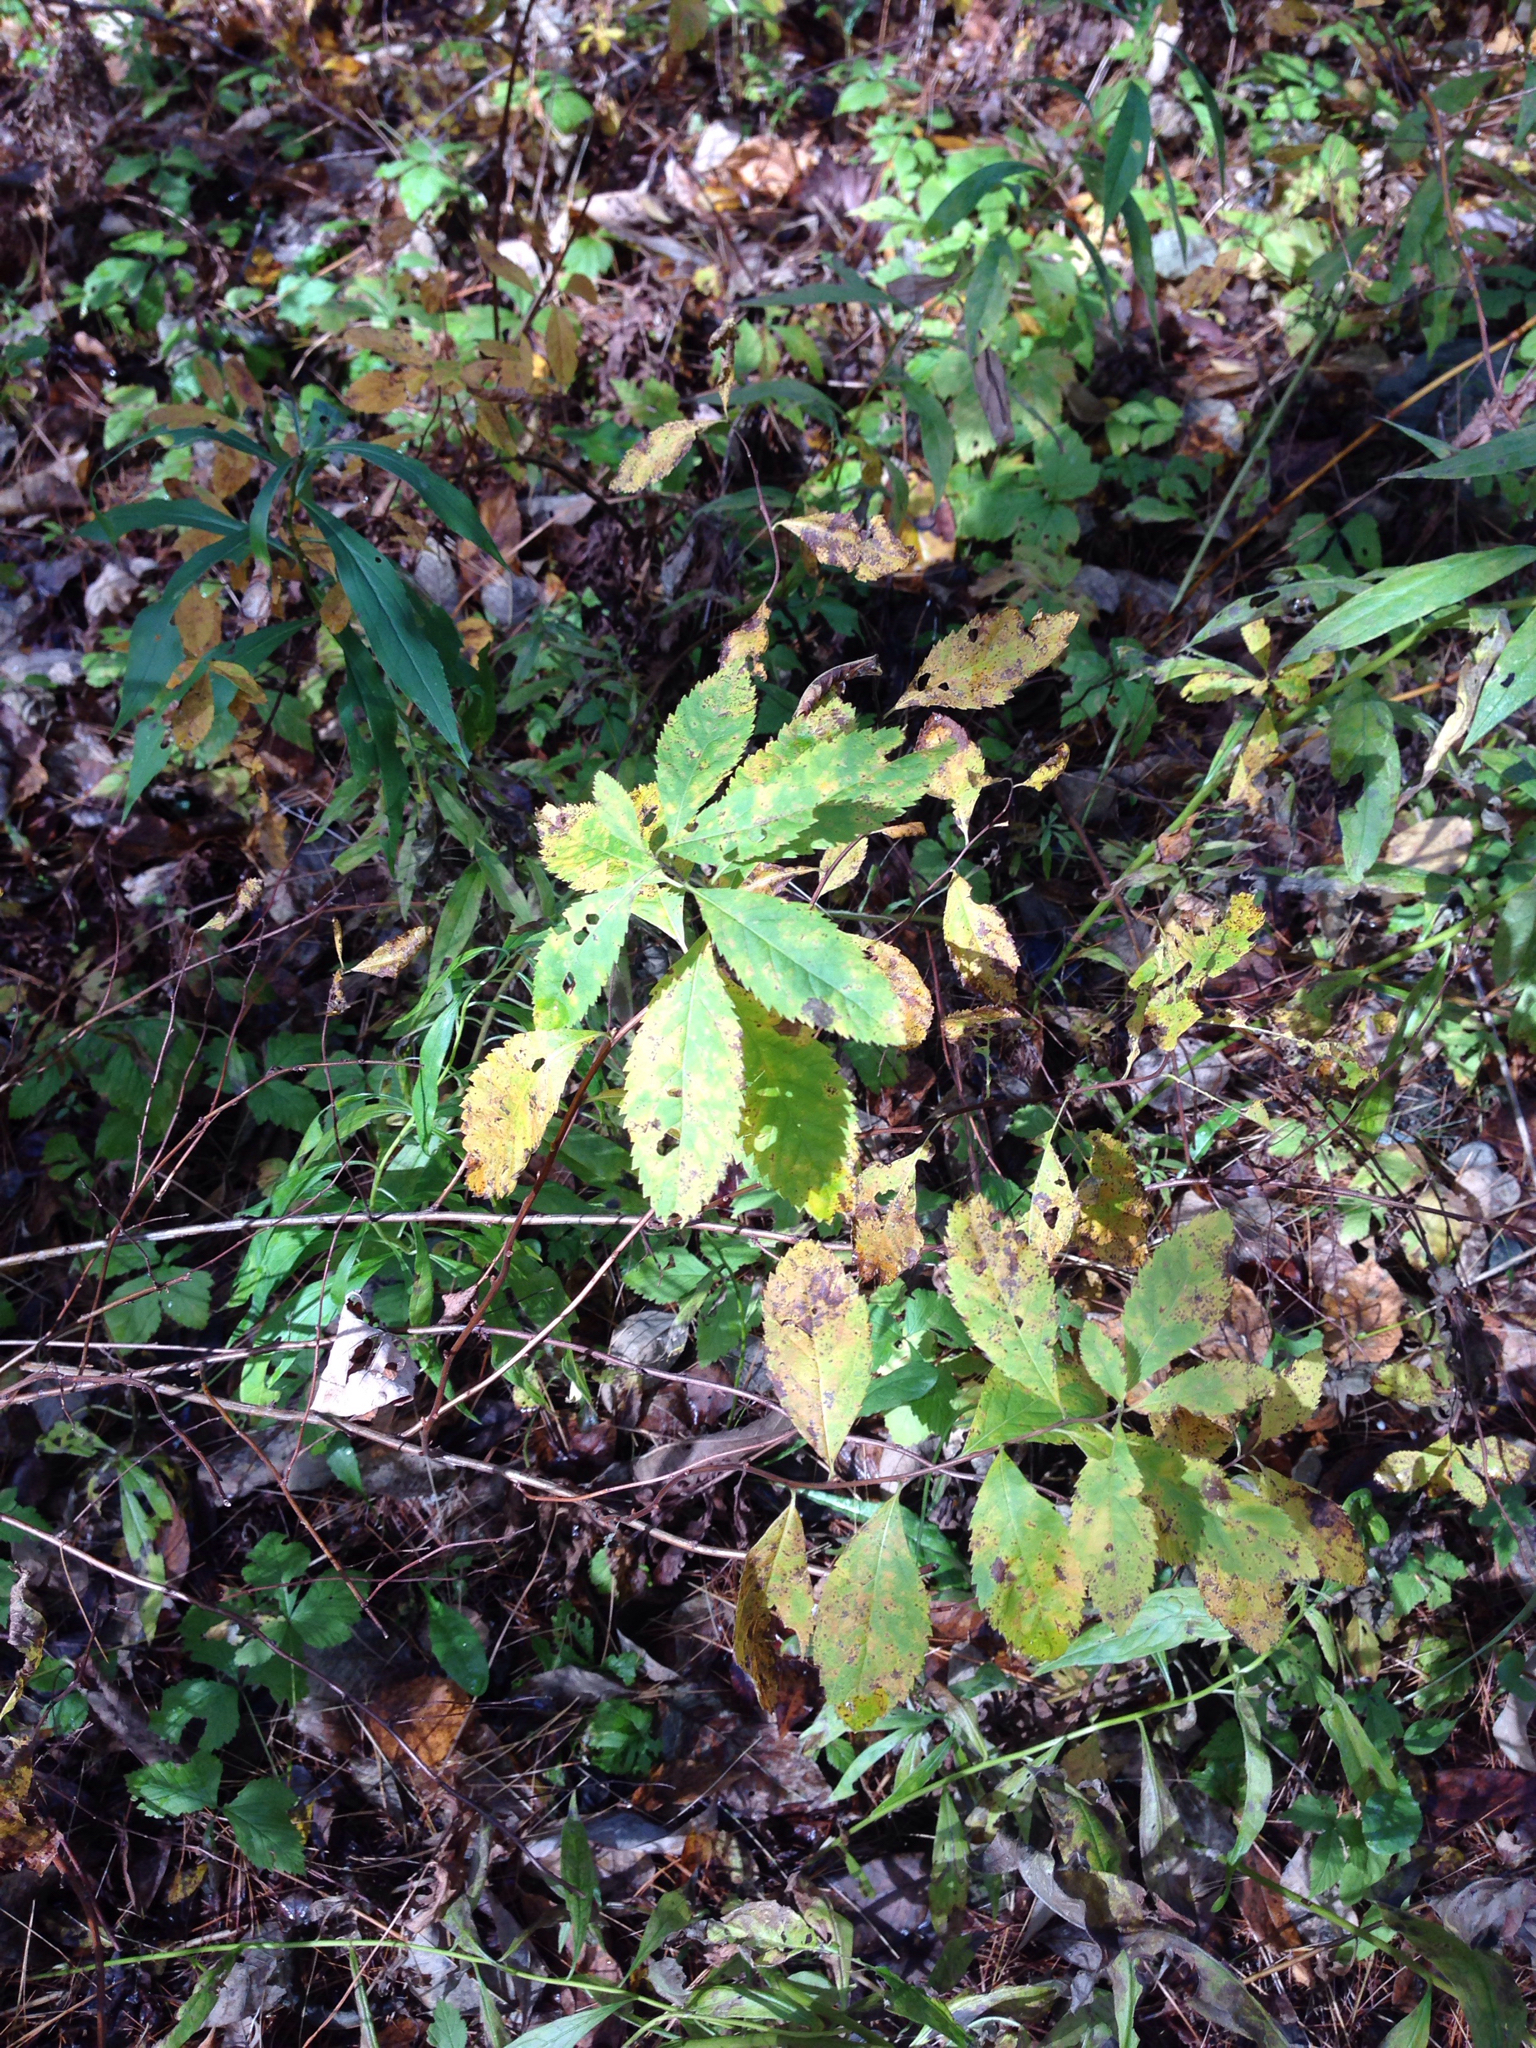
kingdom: Plantae
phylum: Tracheophyta
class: Magnoliopsida
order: Rosales
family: Rosaceae
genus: Spiraea
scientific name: Spiraea alba
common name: Pale bridewort
